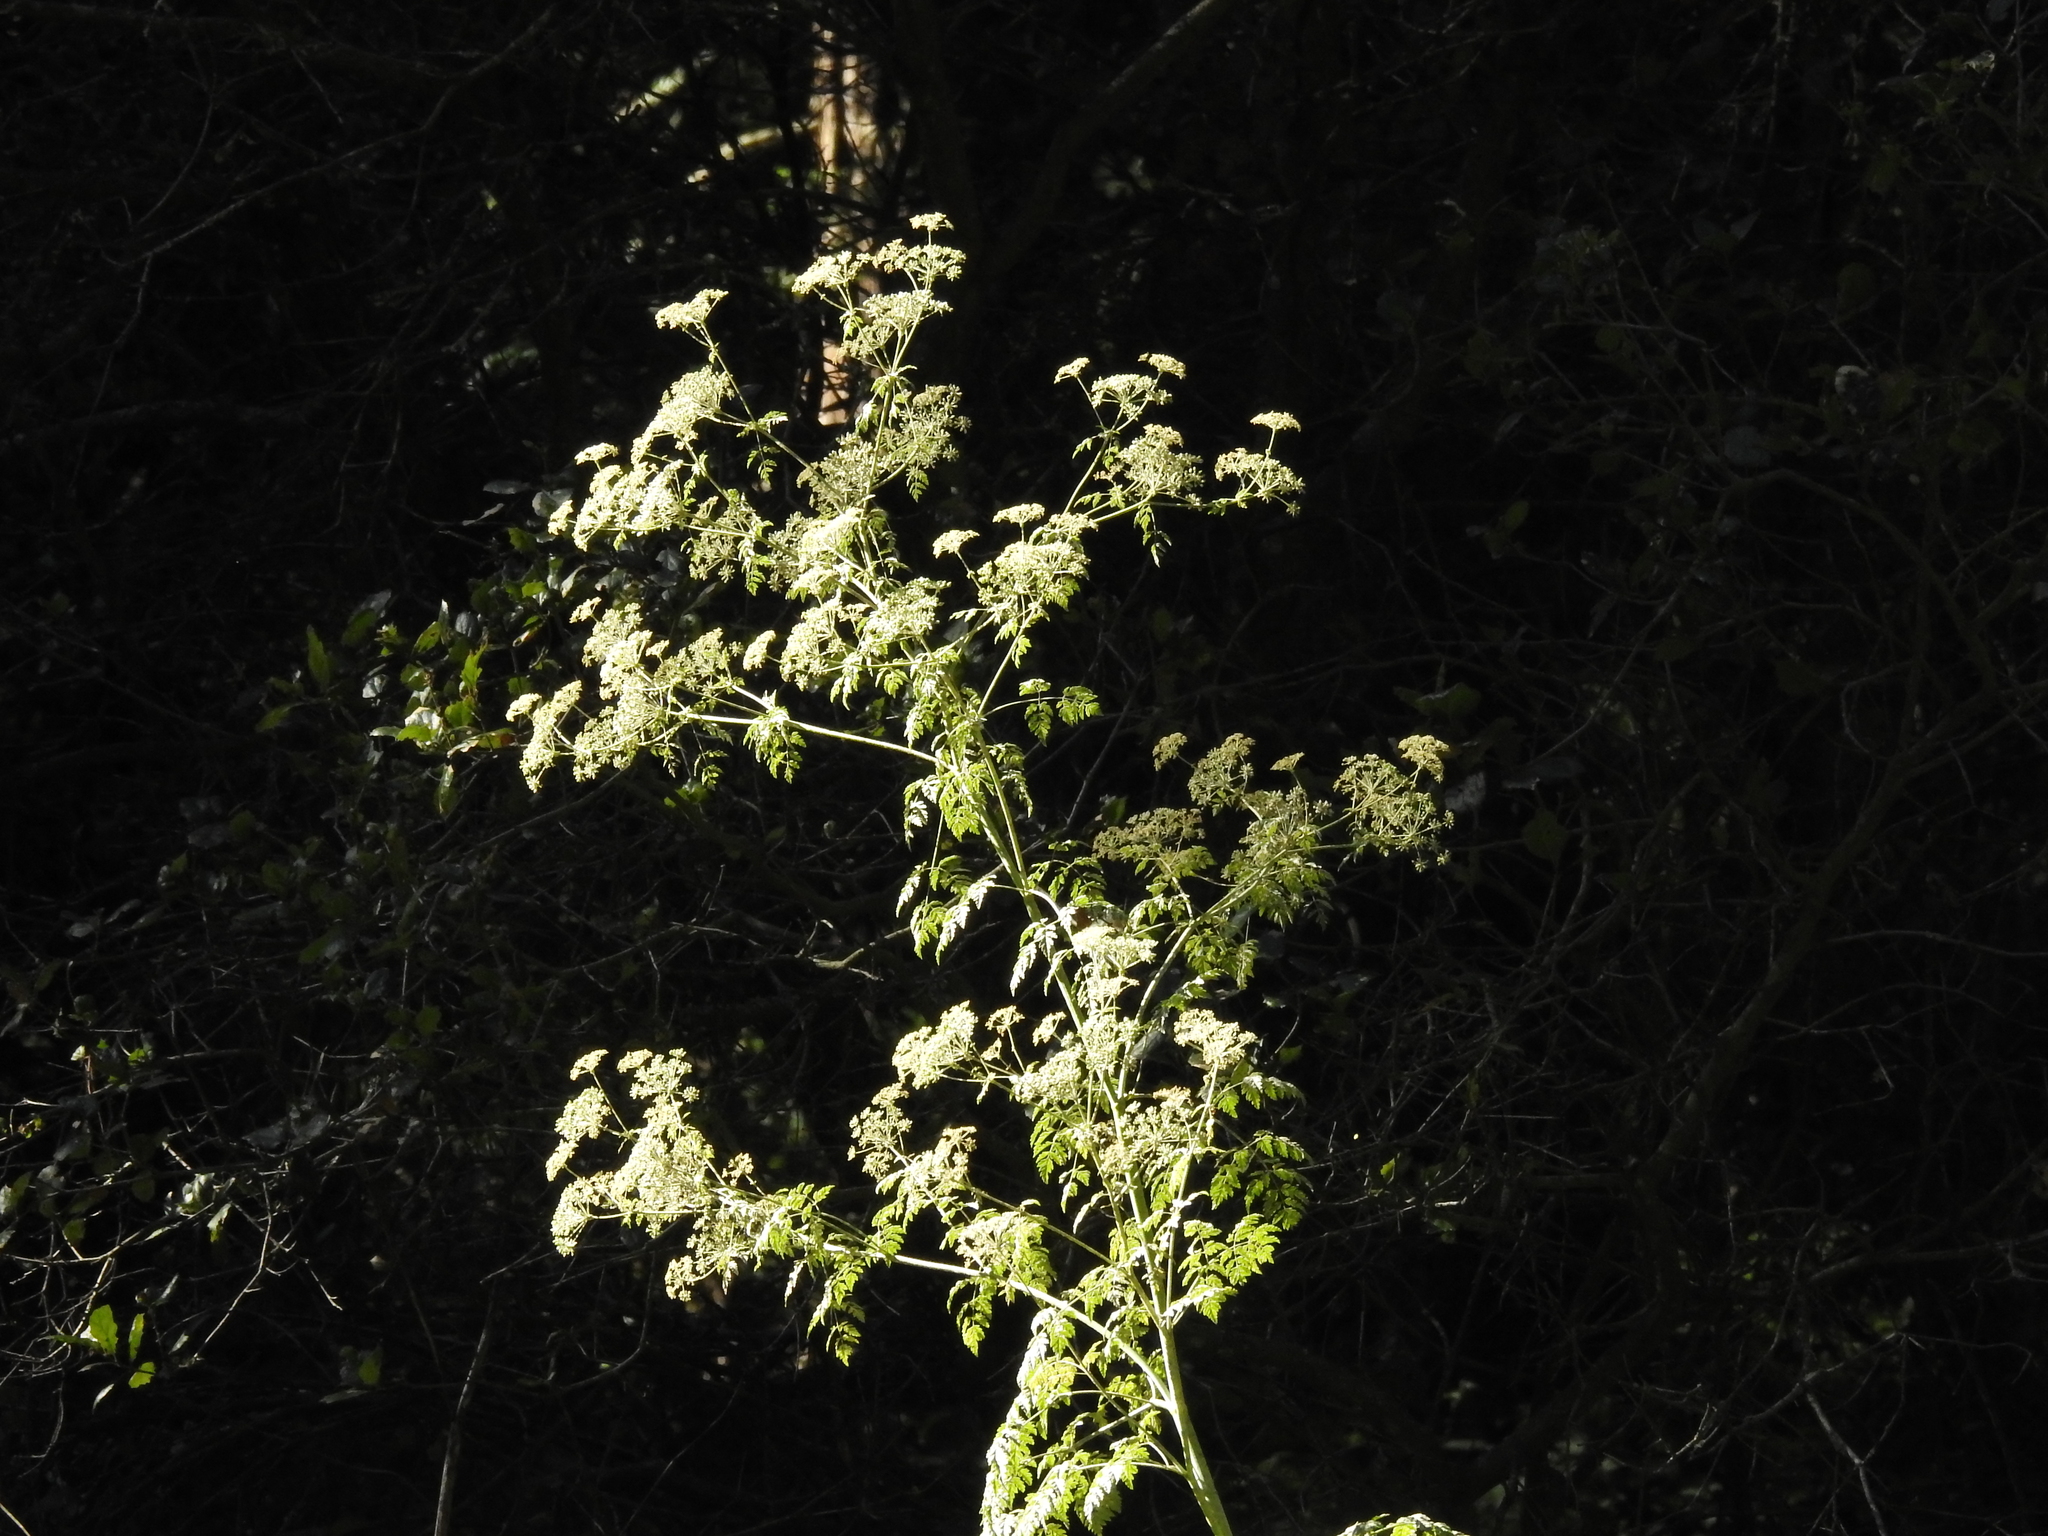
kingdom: Plantae
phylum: Tracheophyta
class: Magnoliopsida
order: Apiales
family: Apiaceae
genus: Conium
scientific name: Conium maculatum
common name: Hemlock
